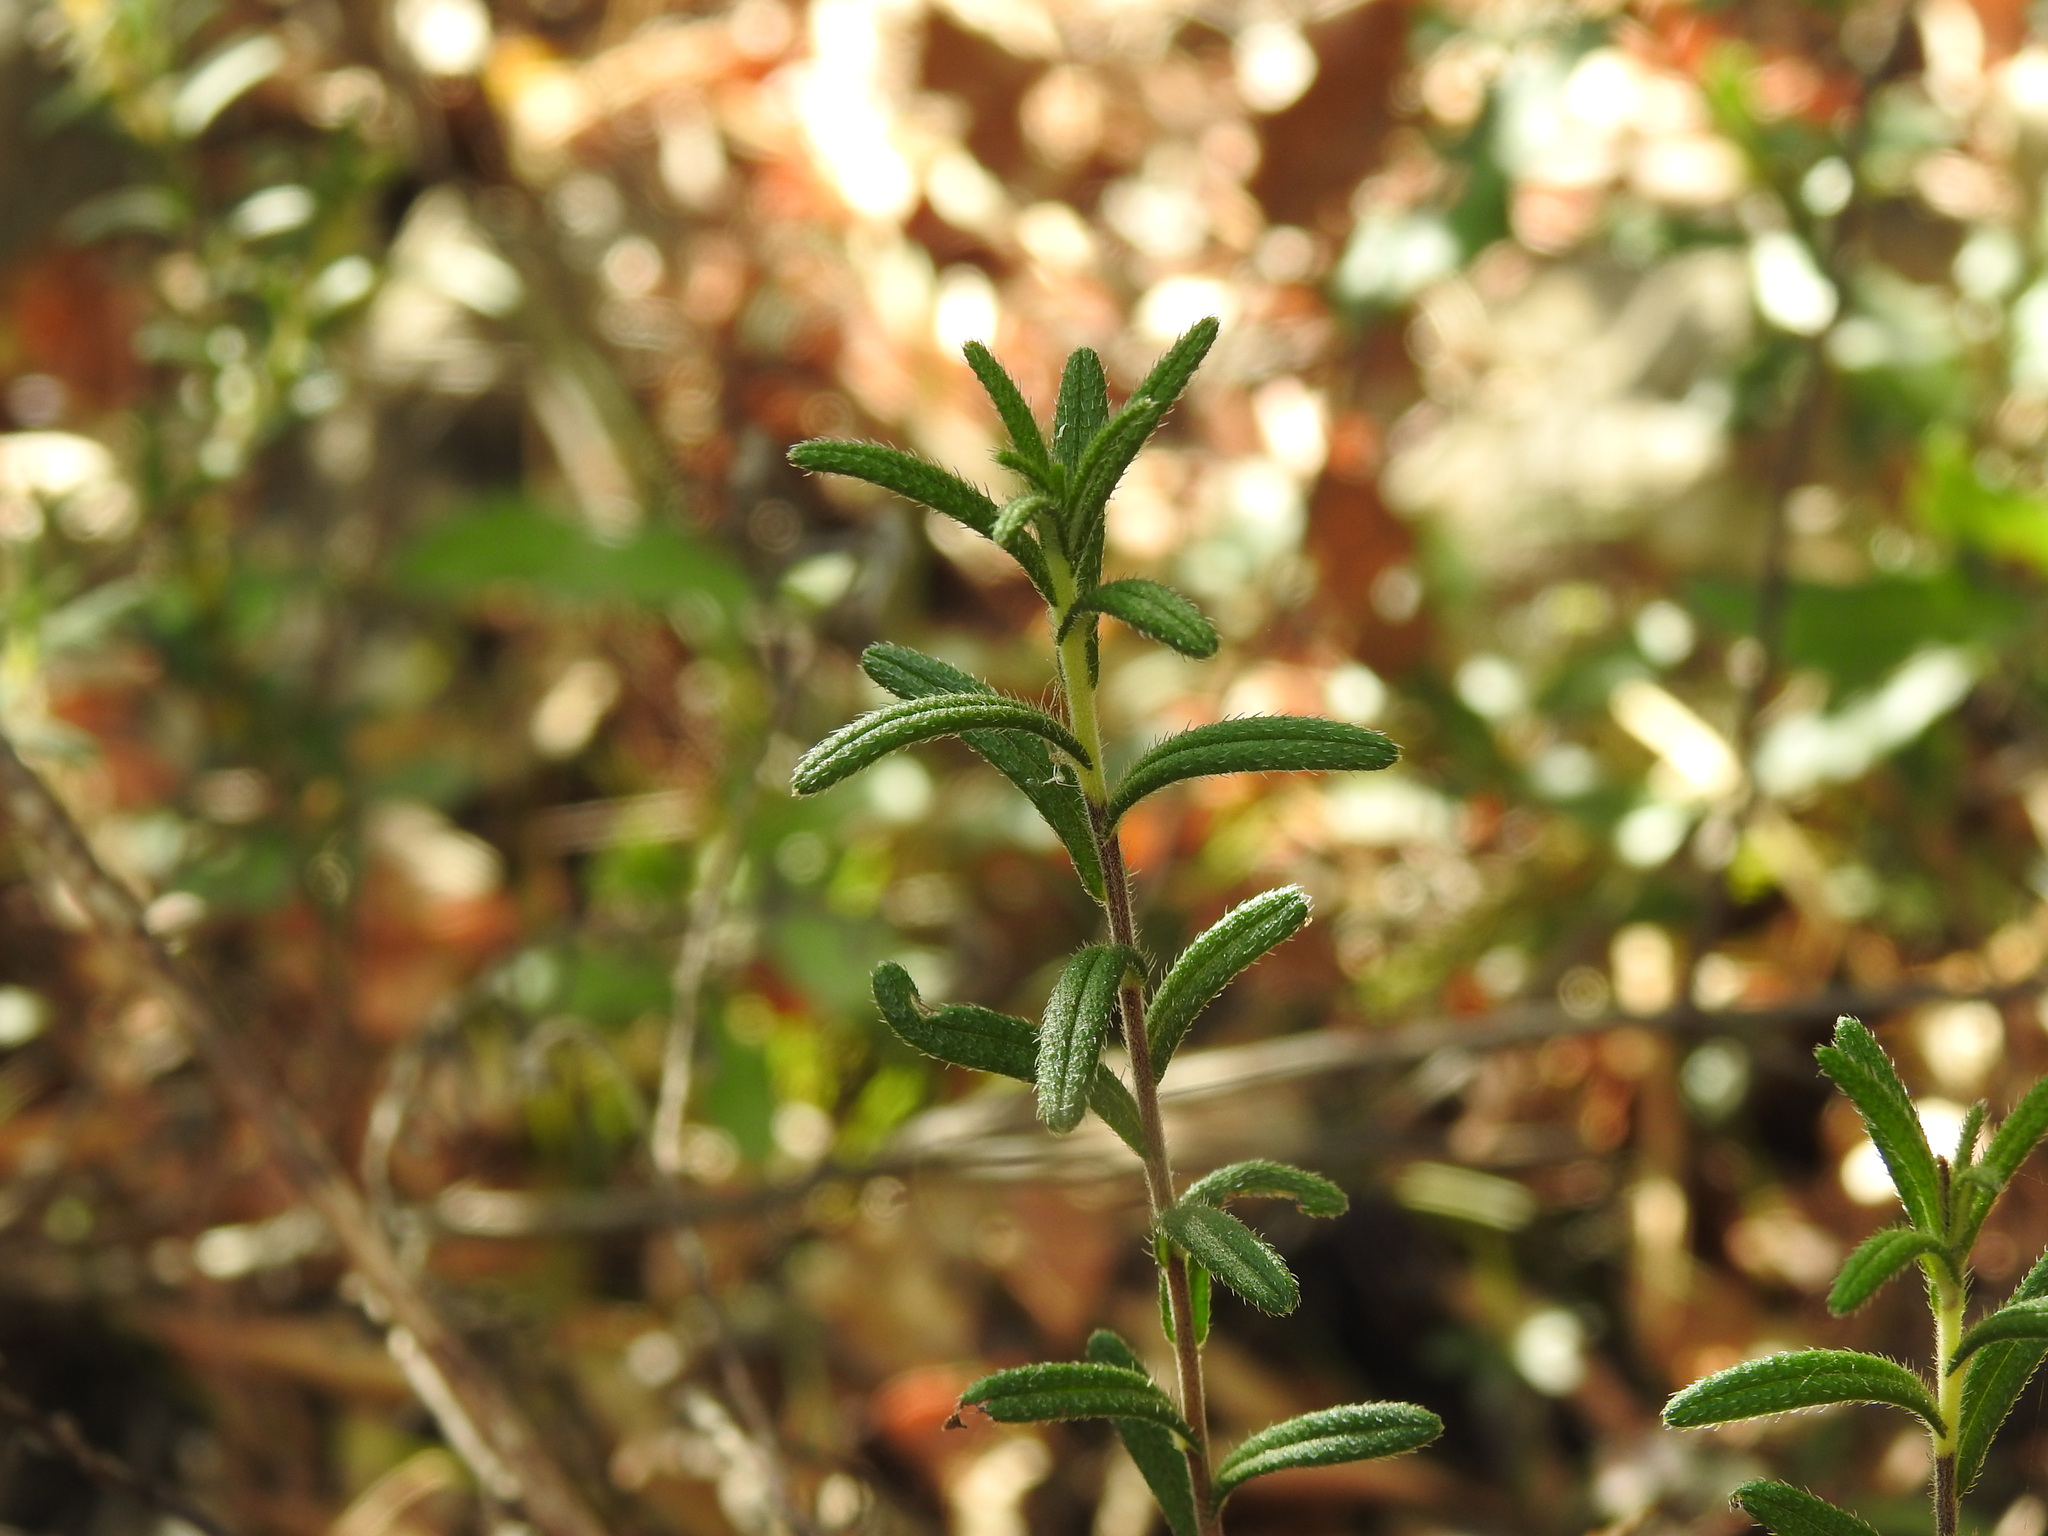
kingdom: Plantae
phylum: Tracheophyta
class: Magnoliopsida
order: Boraginales
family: Boraginaceae
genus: Glandora
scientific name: Glandora prostrata
